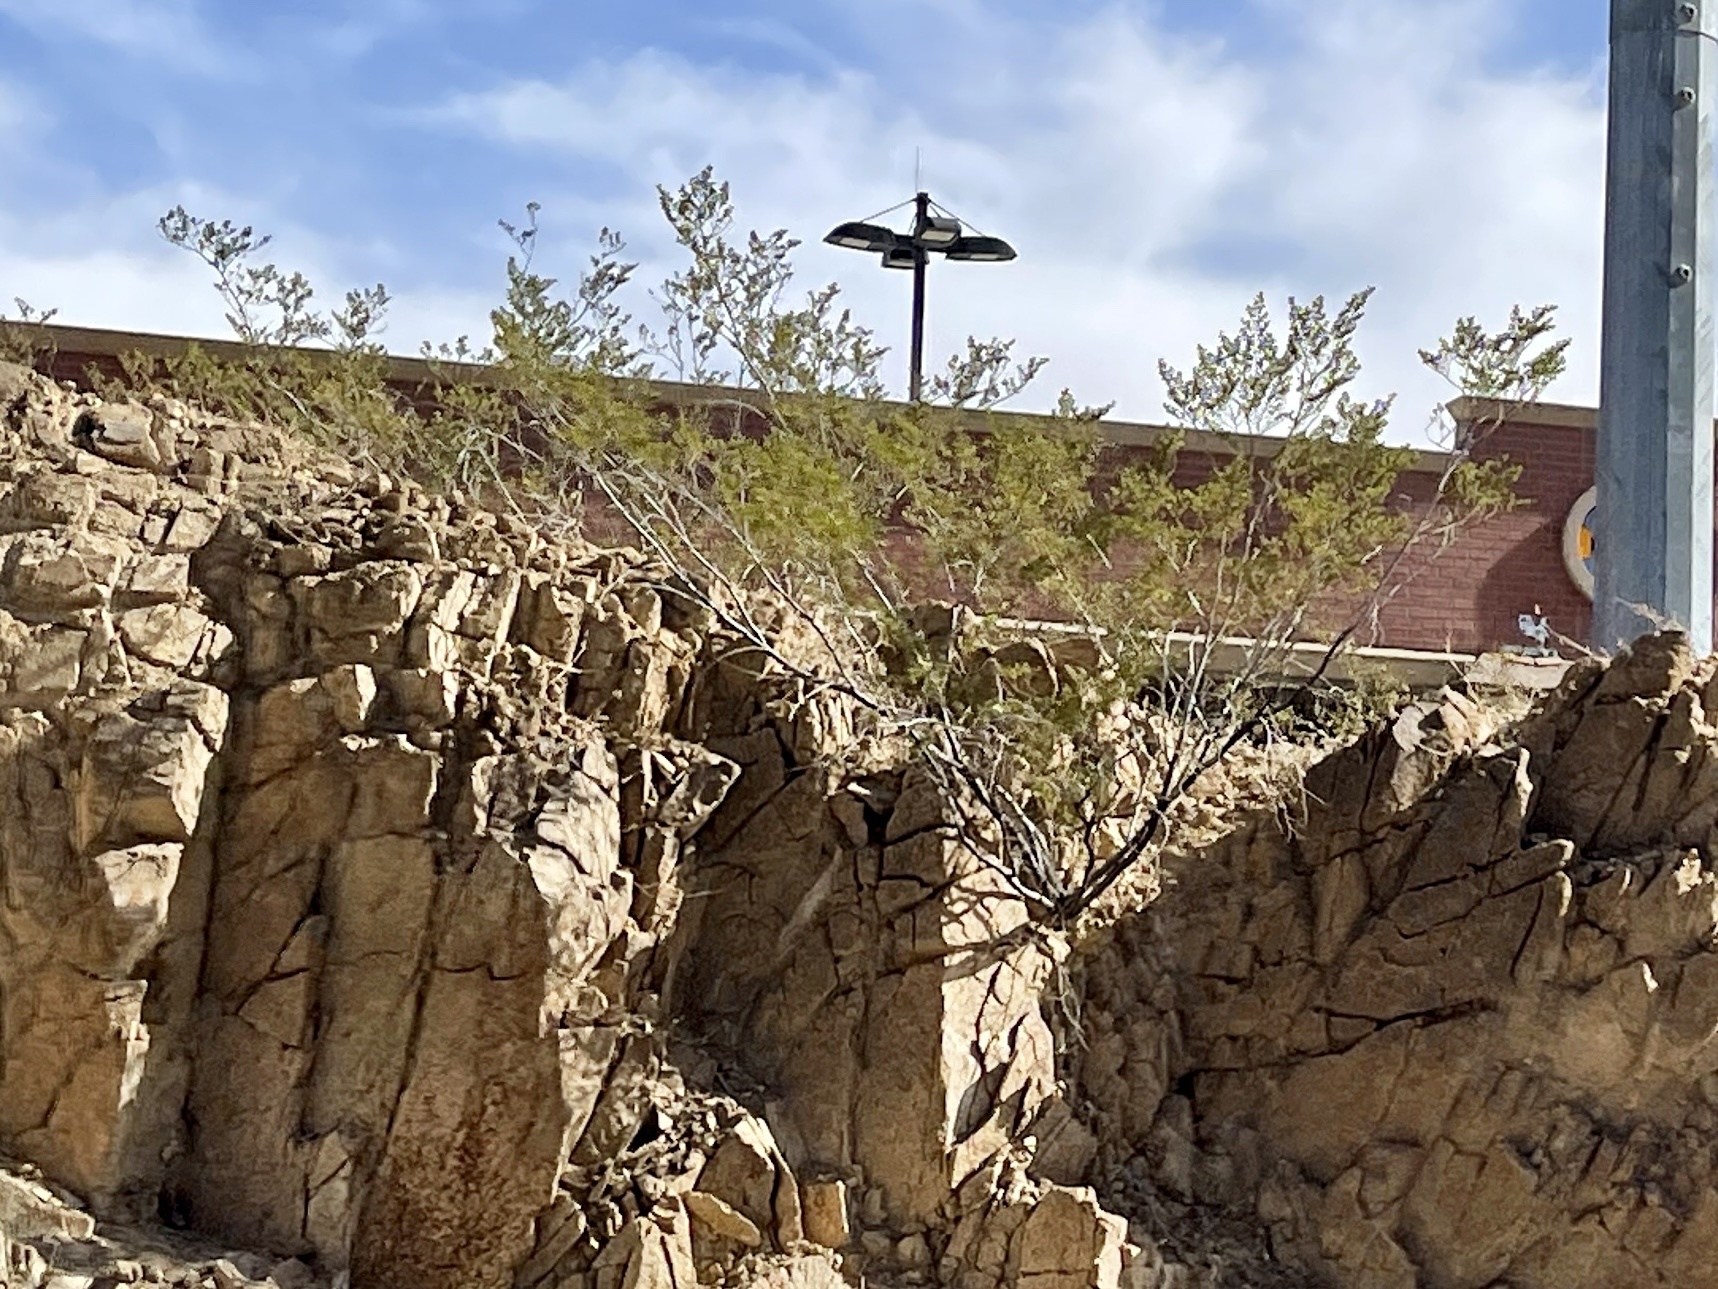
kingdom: Plantae
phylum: Tracheophyta
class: Magnoliopsida
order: Zygophyllales
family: Zygophyllaceae
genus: Larrea
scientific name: Larrea tridentata
